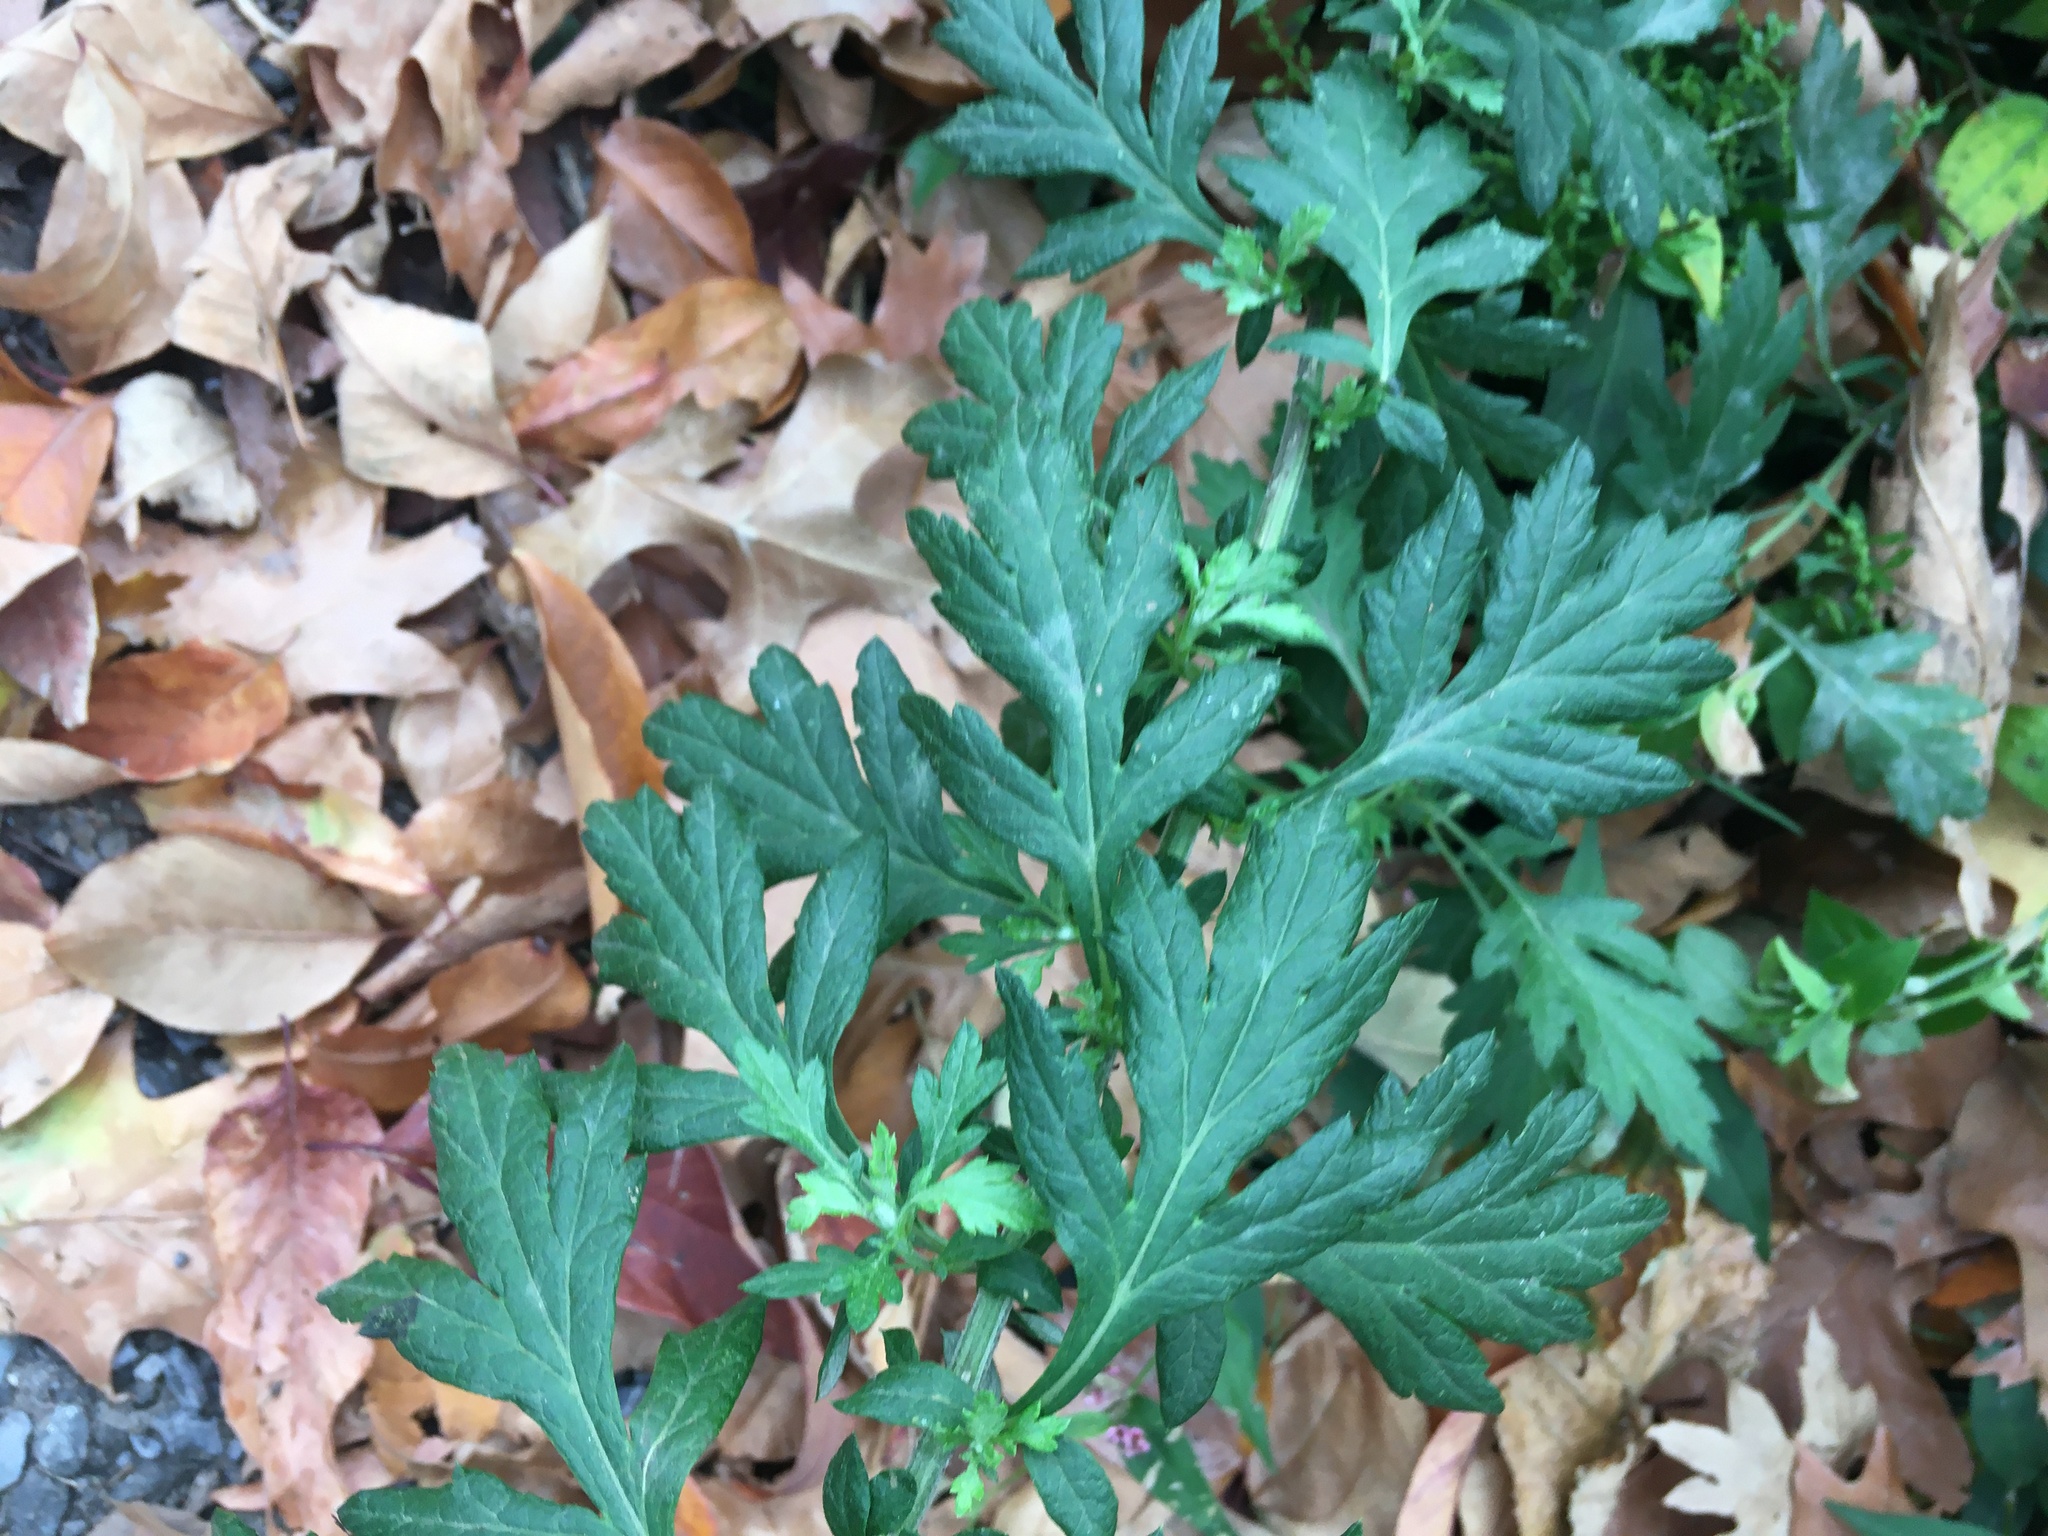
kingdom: Plantae
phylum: Tracheophyta
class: Magnoliopsida
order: Asterales
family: Asteraceae
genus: Artemisia
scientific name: Artemisia vulgaris
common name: Mugwort
